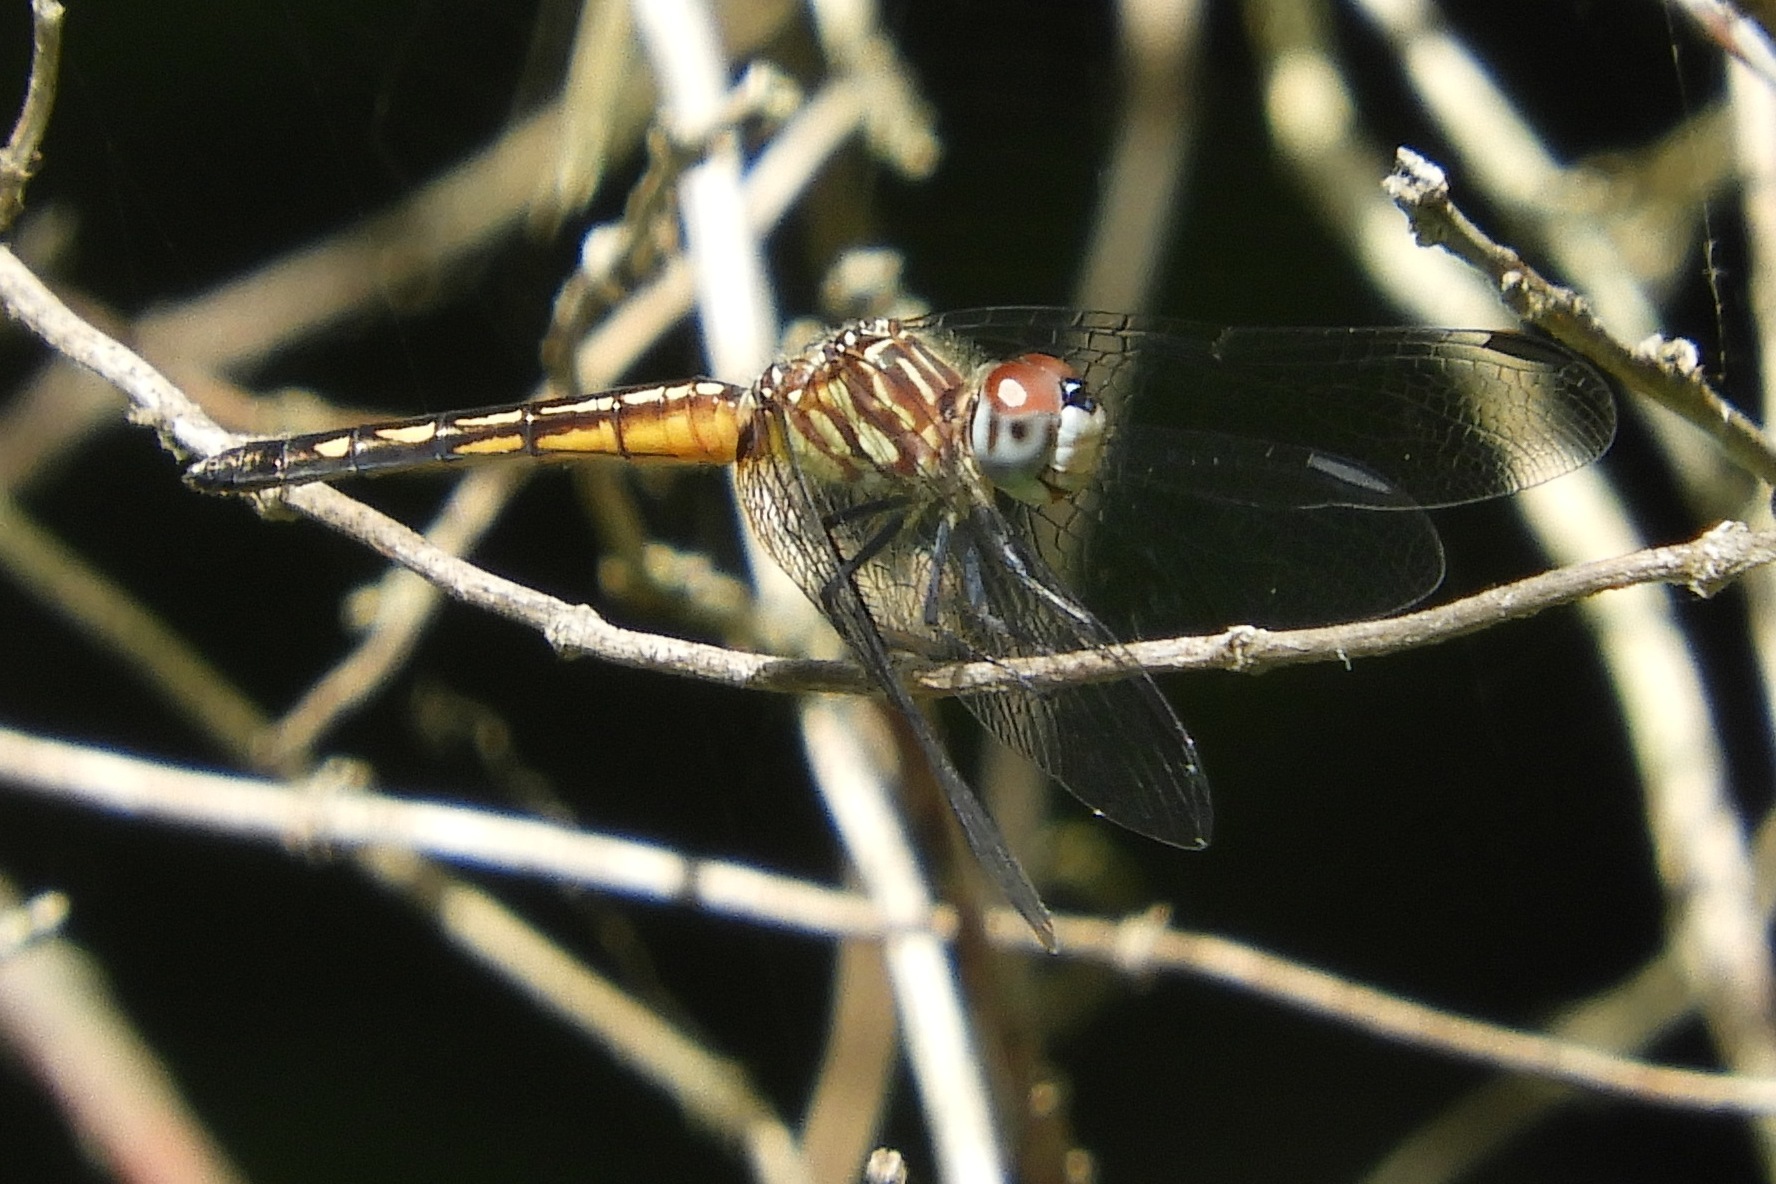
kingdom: Animalia
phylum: Arthropoda
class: Insecta
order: Odonata
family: Libellulidae
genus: Pachydiplax
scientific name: Pachydiplax longipennis
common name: Blue dasher
